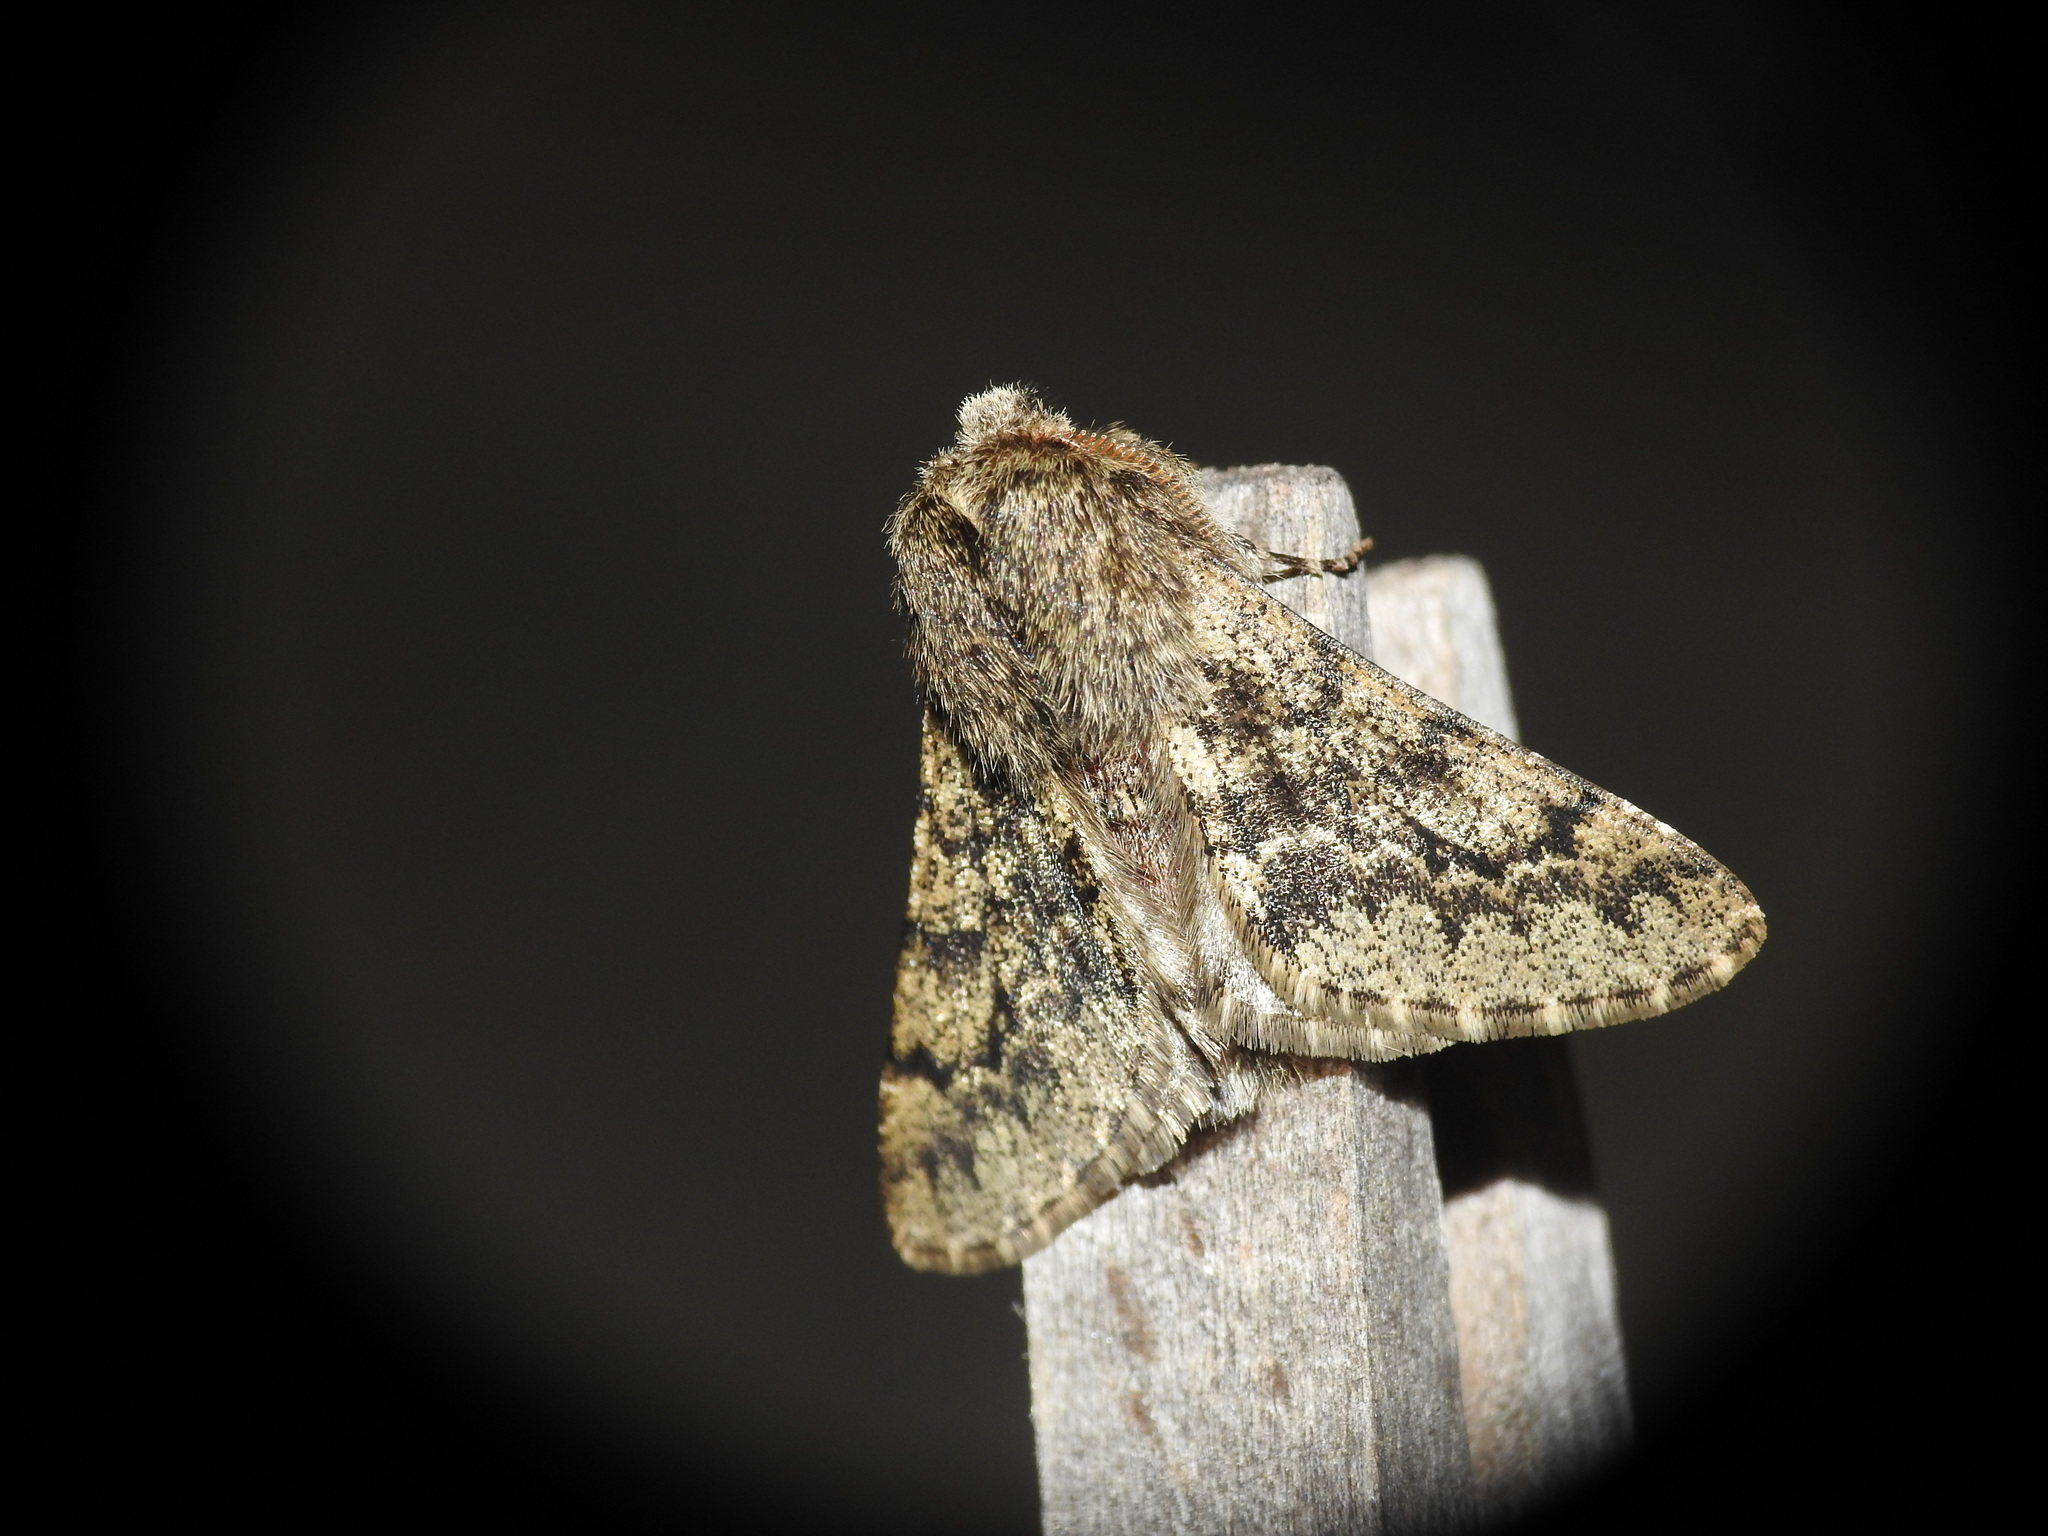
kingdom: Animalia
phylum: Arthropoda
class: Insecta
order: Lepidoptera
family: Geometridae
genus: Apocheima
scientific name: Apocheima hispidaria
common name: Small brindled beauty
